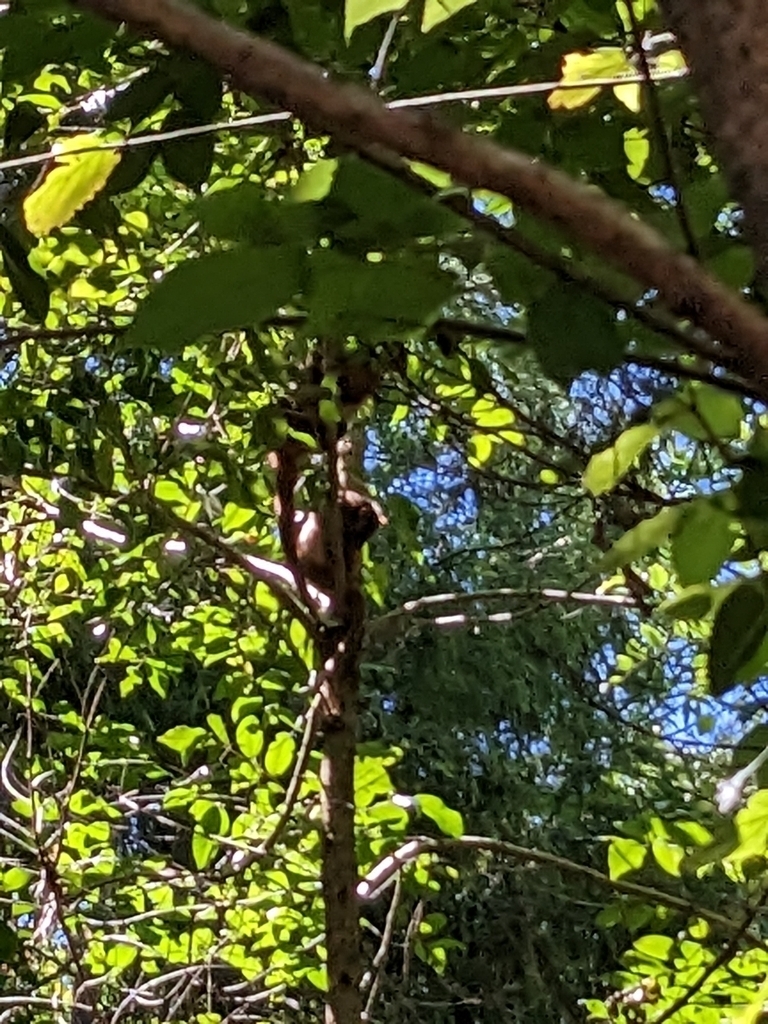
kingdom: Animalia
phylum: Chordata
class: Mammalia
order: Diprotodontia
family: Pseudocheiridae
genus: Pseudocheirus
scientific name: Pseudocheirus peregrinus
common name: Common ringtail possum
